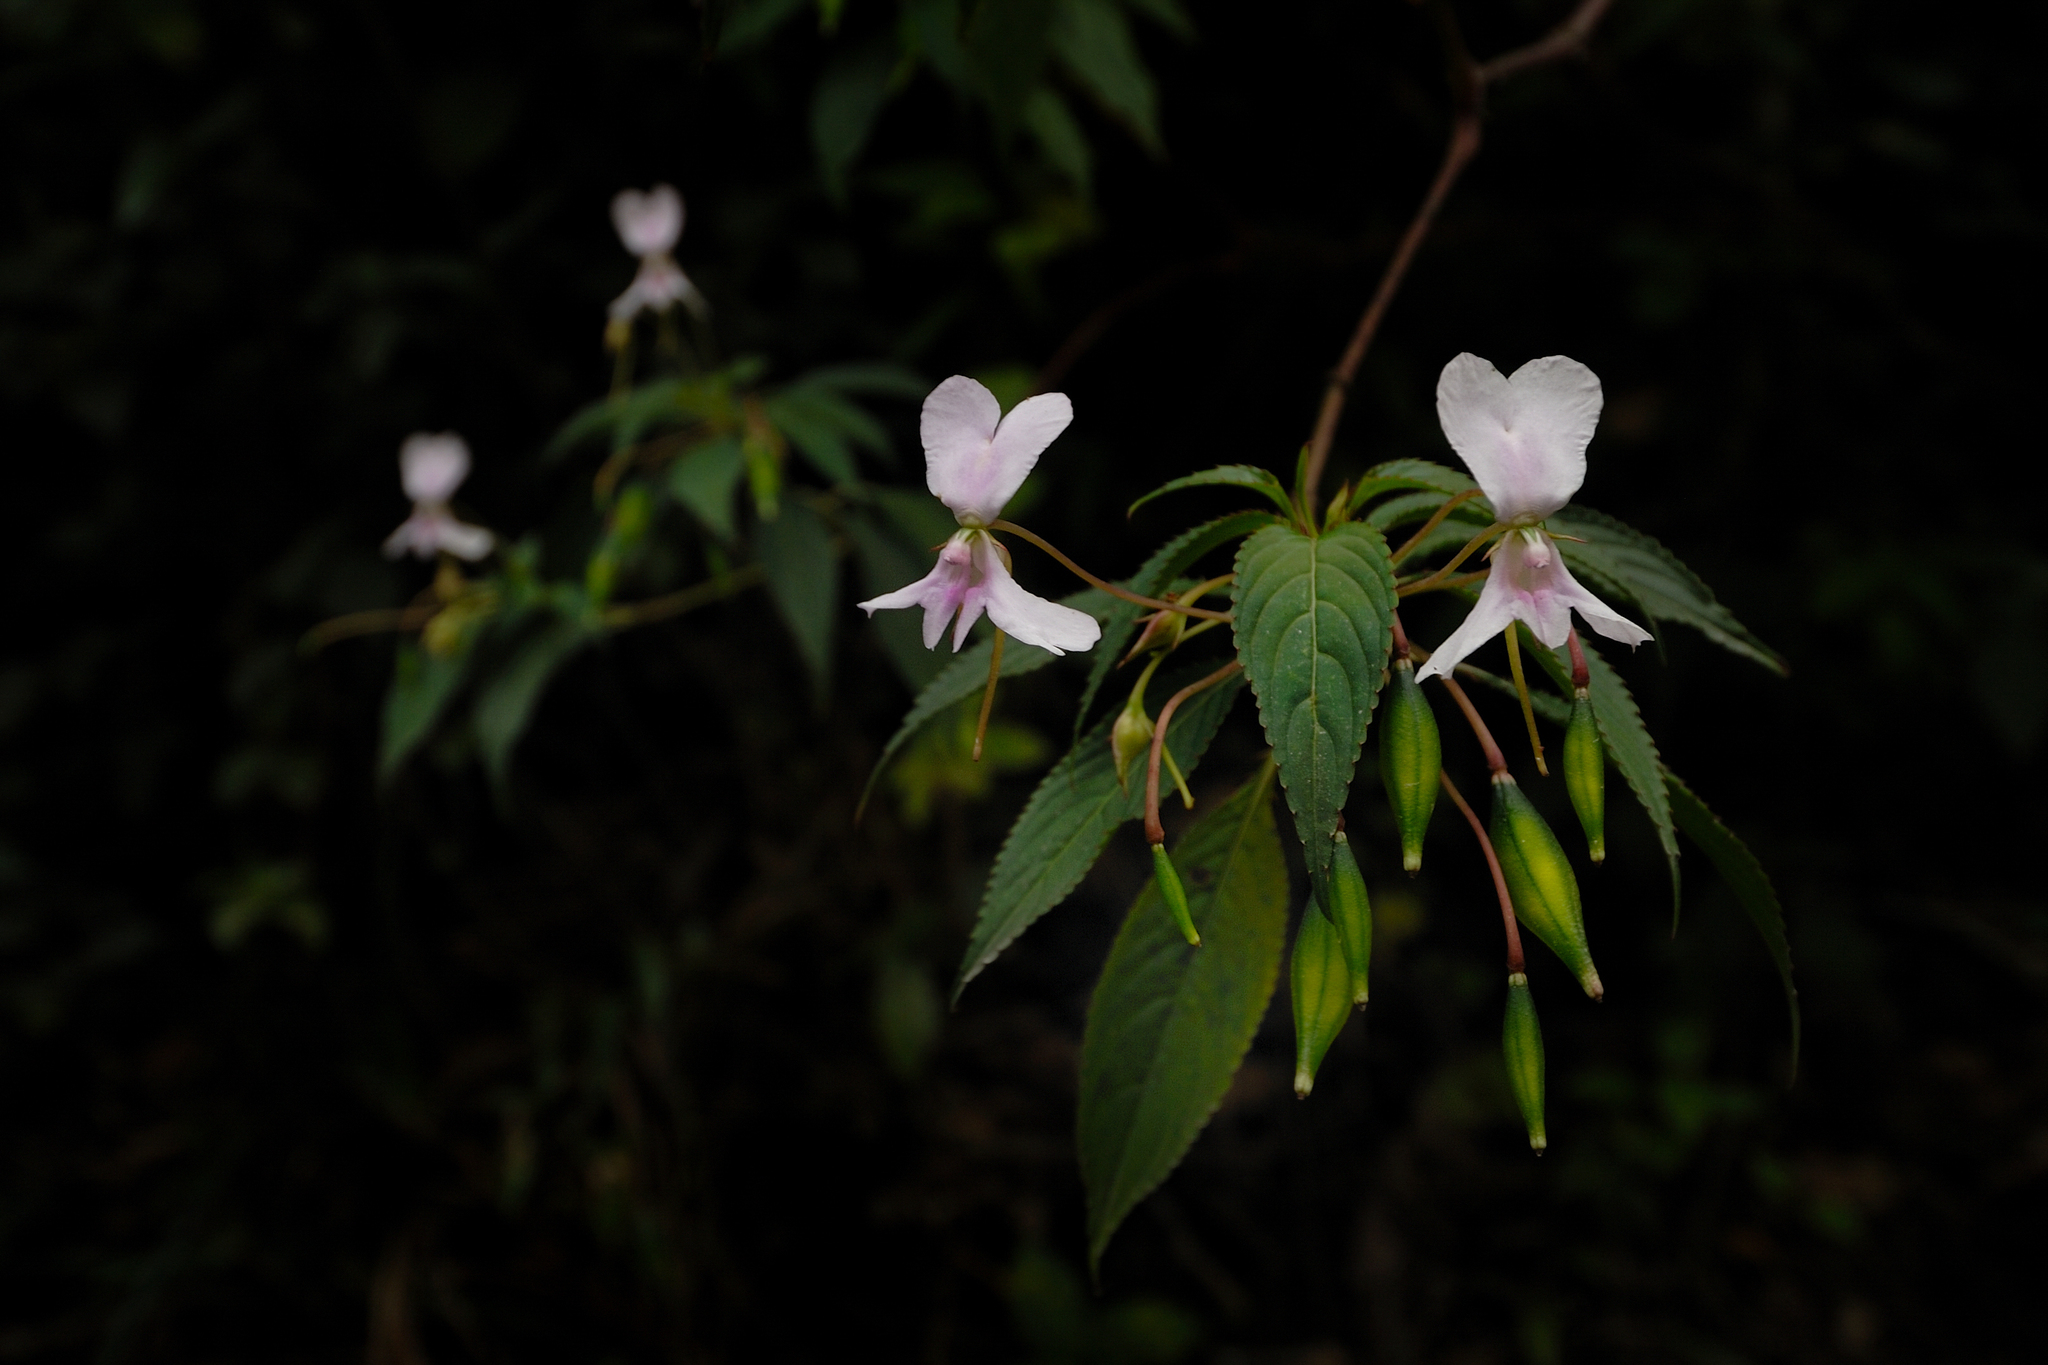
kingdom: Plantae
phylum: Tracheophyta
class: Magnoliopsida
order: Ericales
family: Balsaminaceae
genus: Impatiens
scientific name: Impatiens macrocarpa
